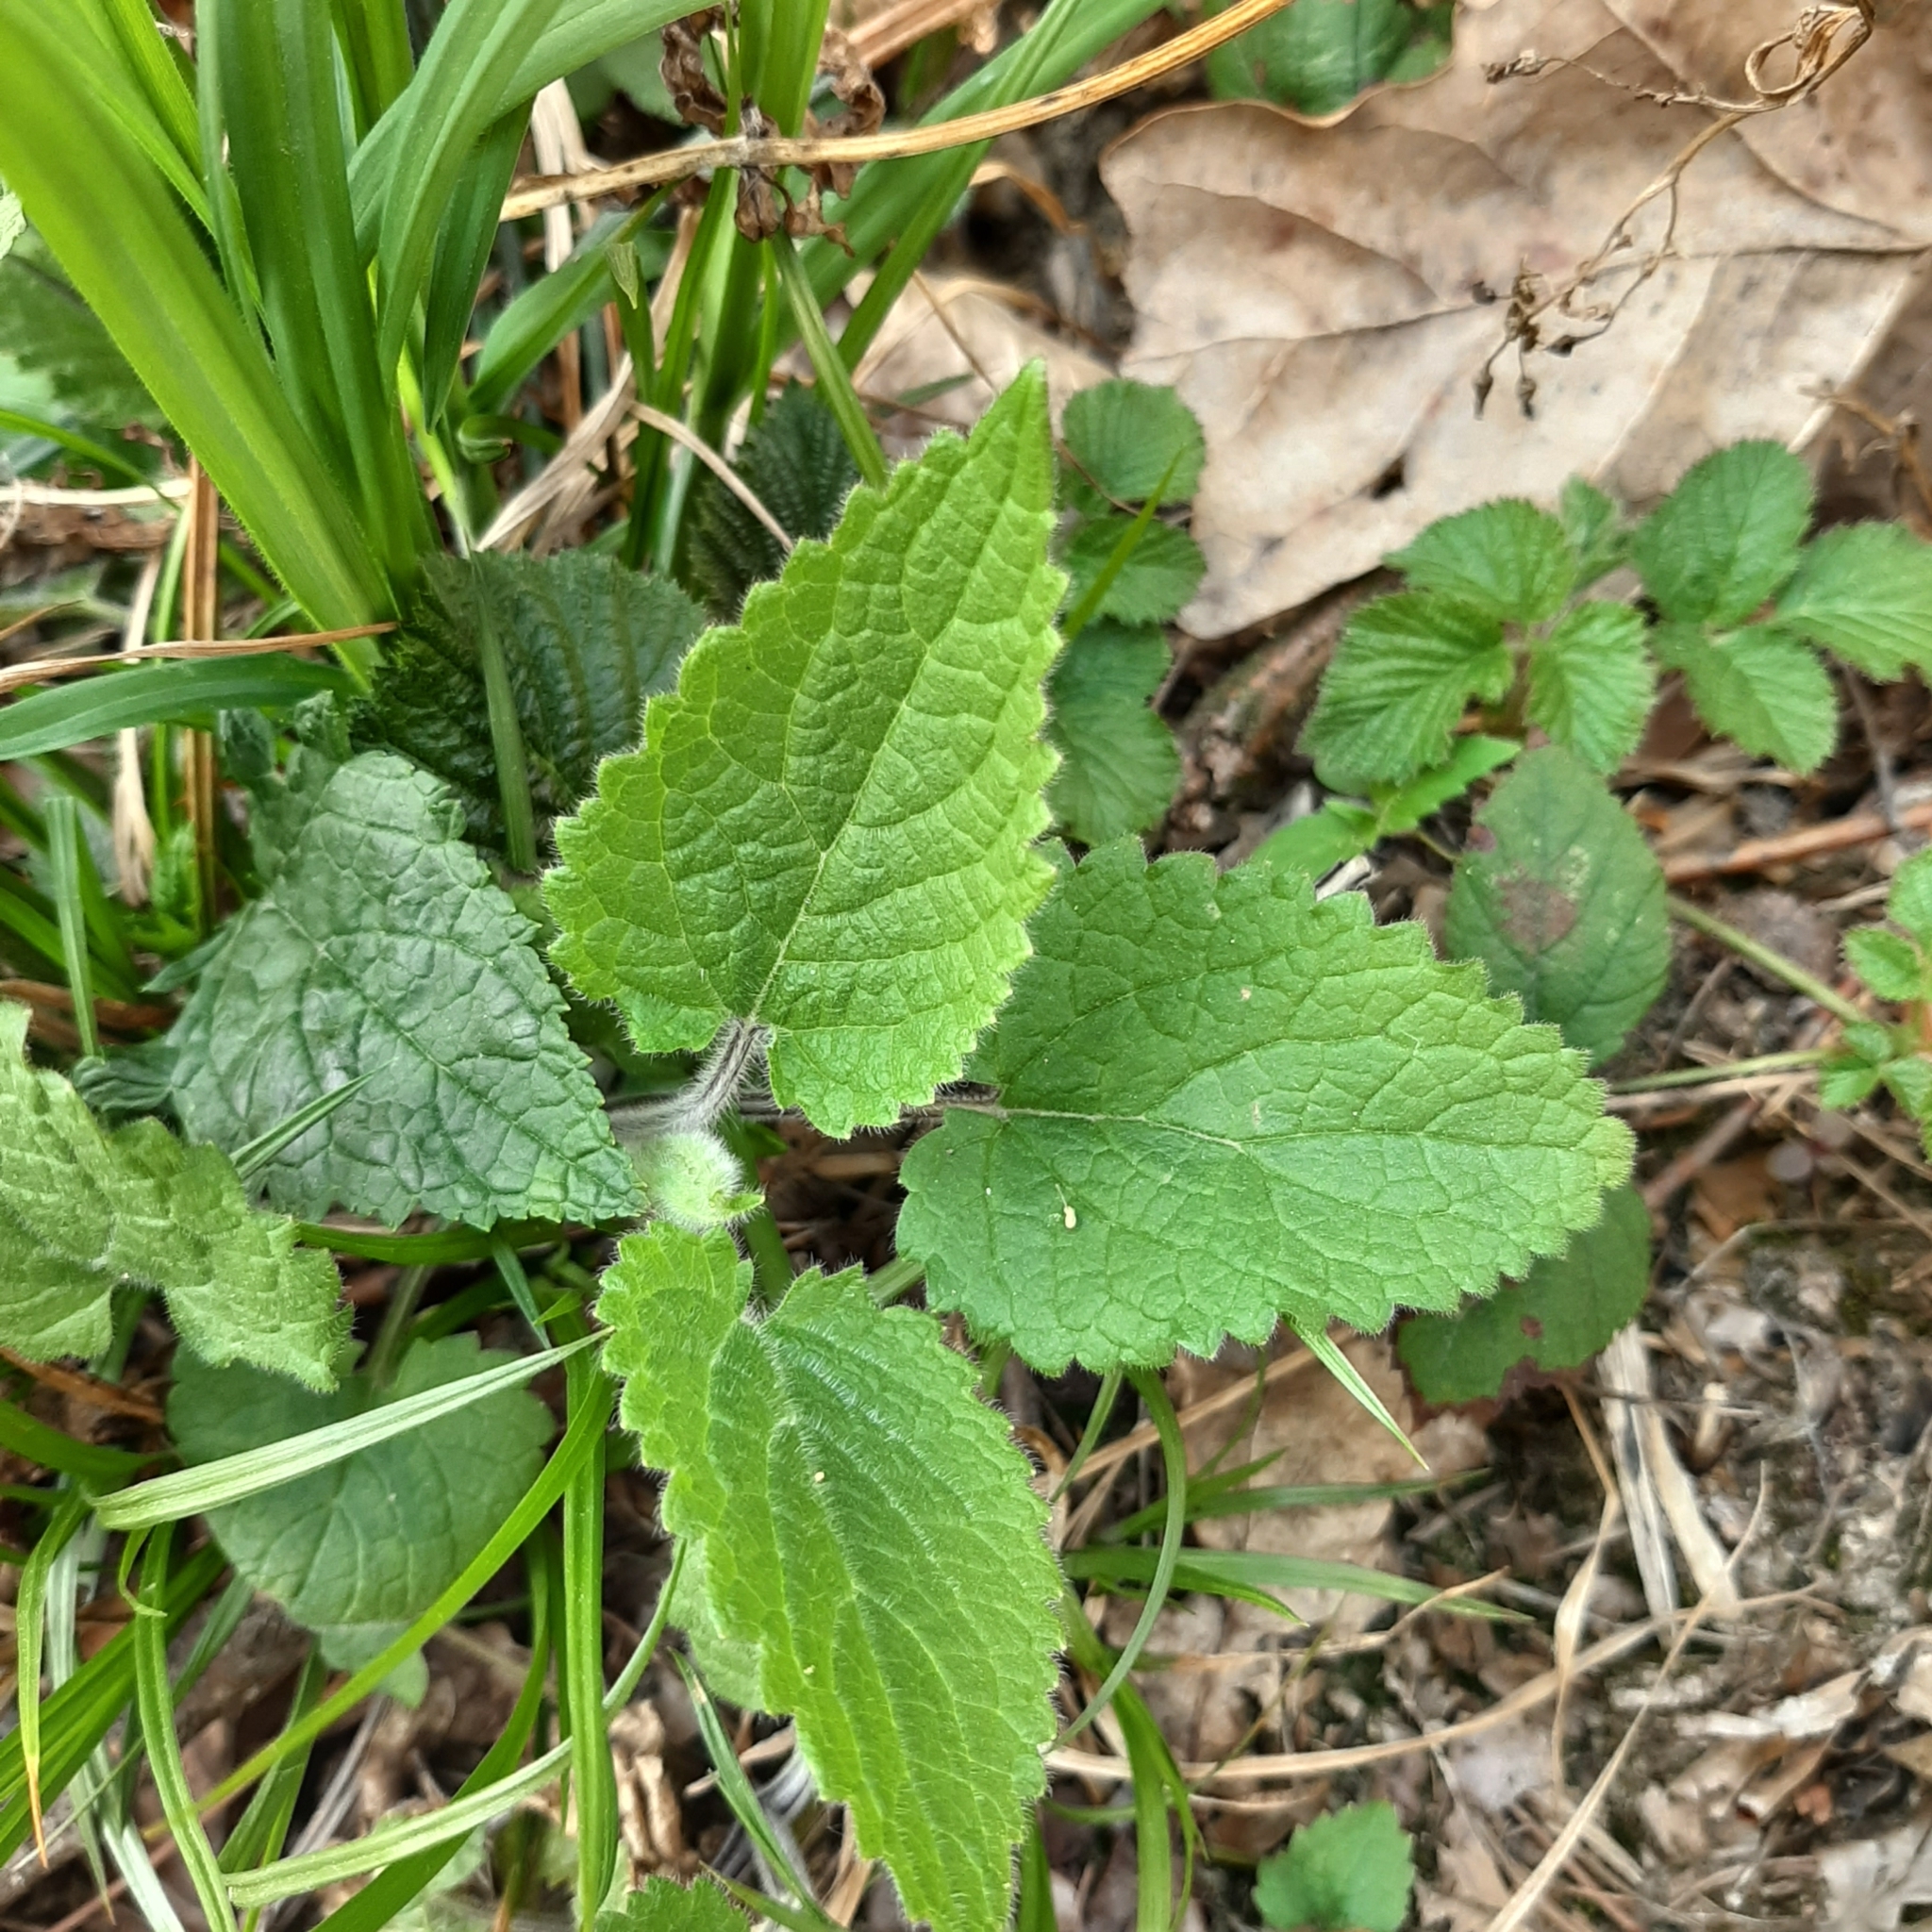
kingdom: Plantae
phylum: Tracheophyta
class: Magnoliopsida
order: Lamiales
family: Lamiaceae
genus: Stachys
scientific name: Stachys sylvatica
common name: Hedge woundwort
